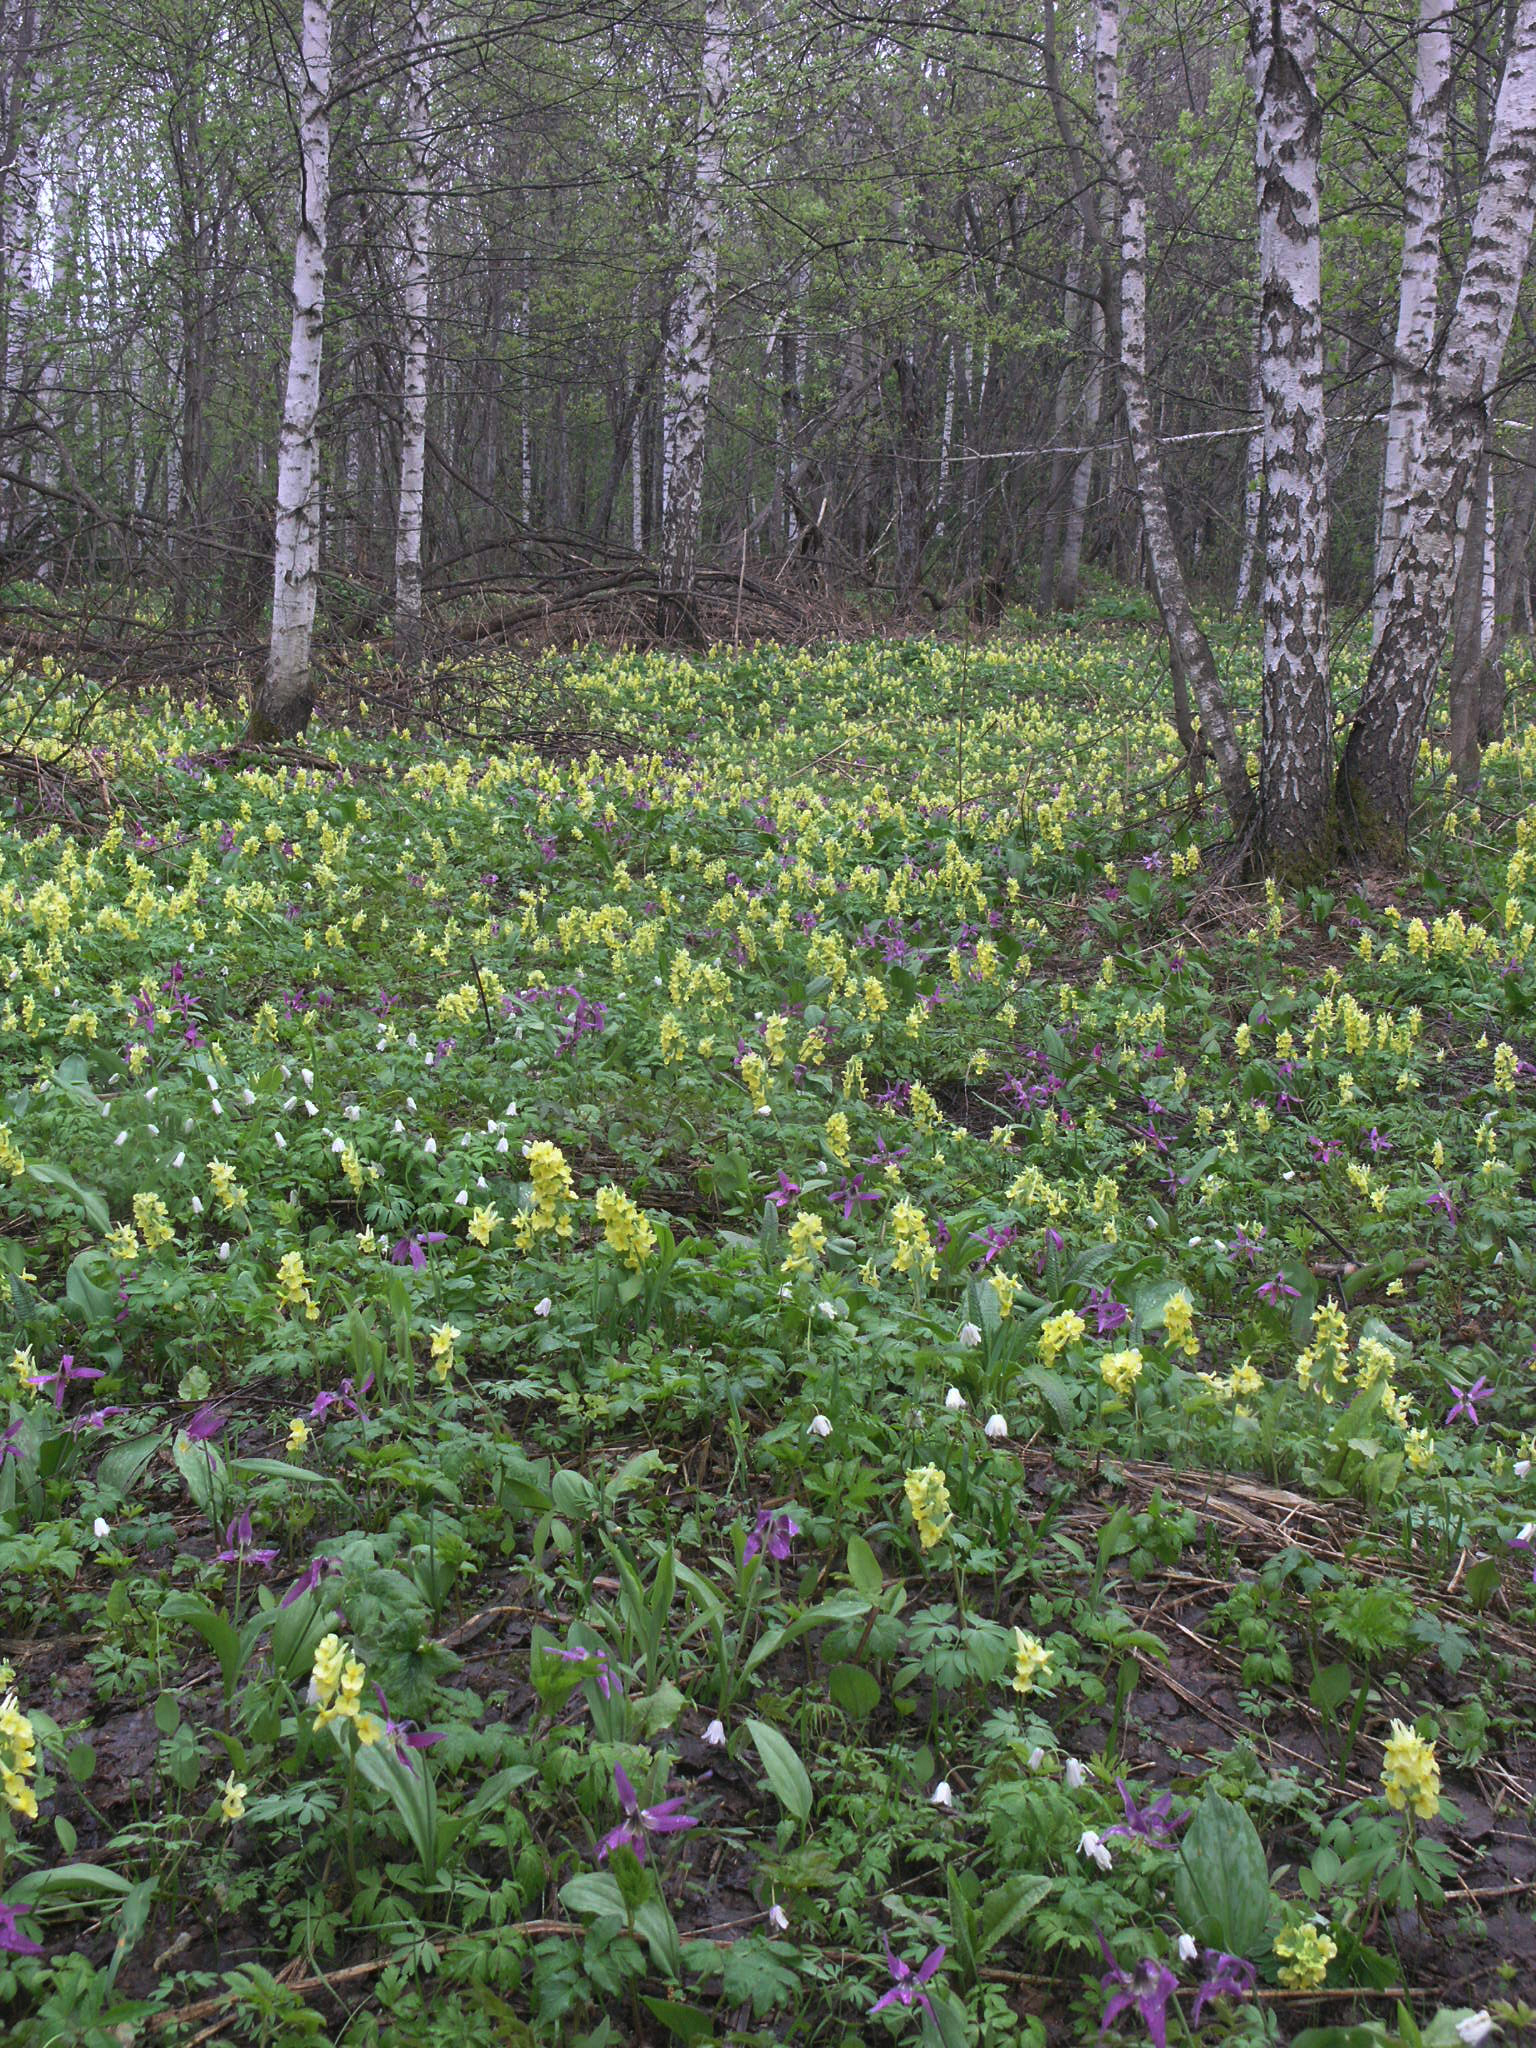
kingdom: Plantae
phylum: Tracheophyta
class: Magnoliopsida
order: Ranunculales
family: Papaveraceae
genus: Corydalis
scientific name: Corydalis bracteata
